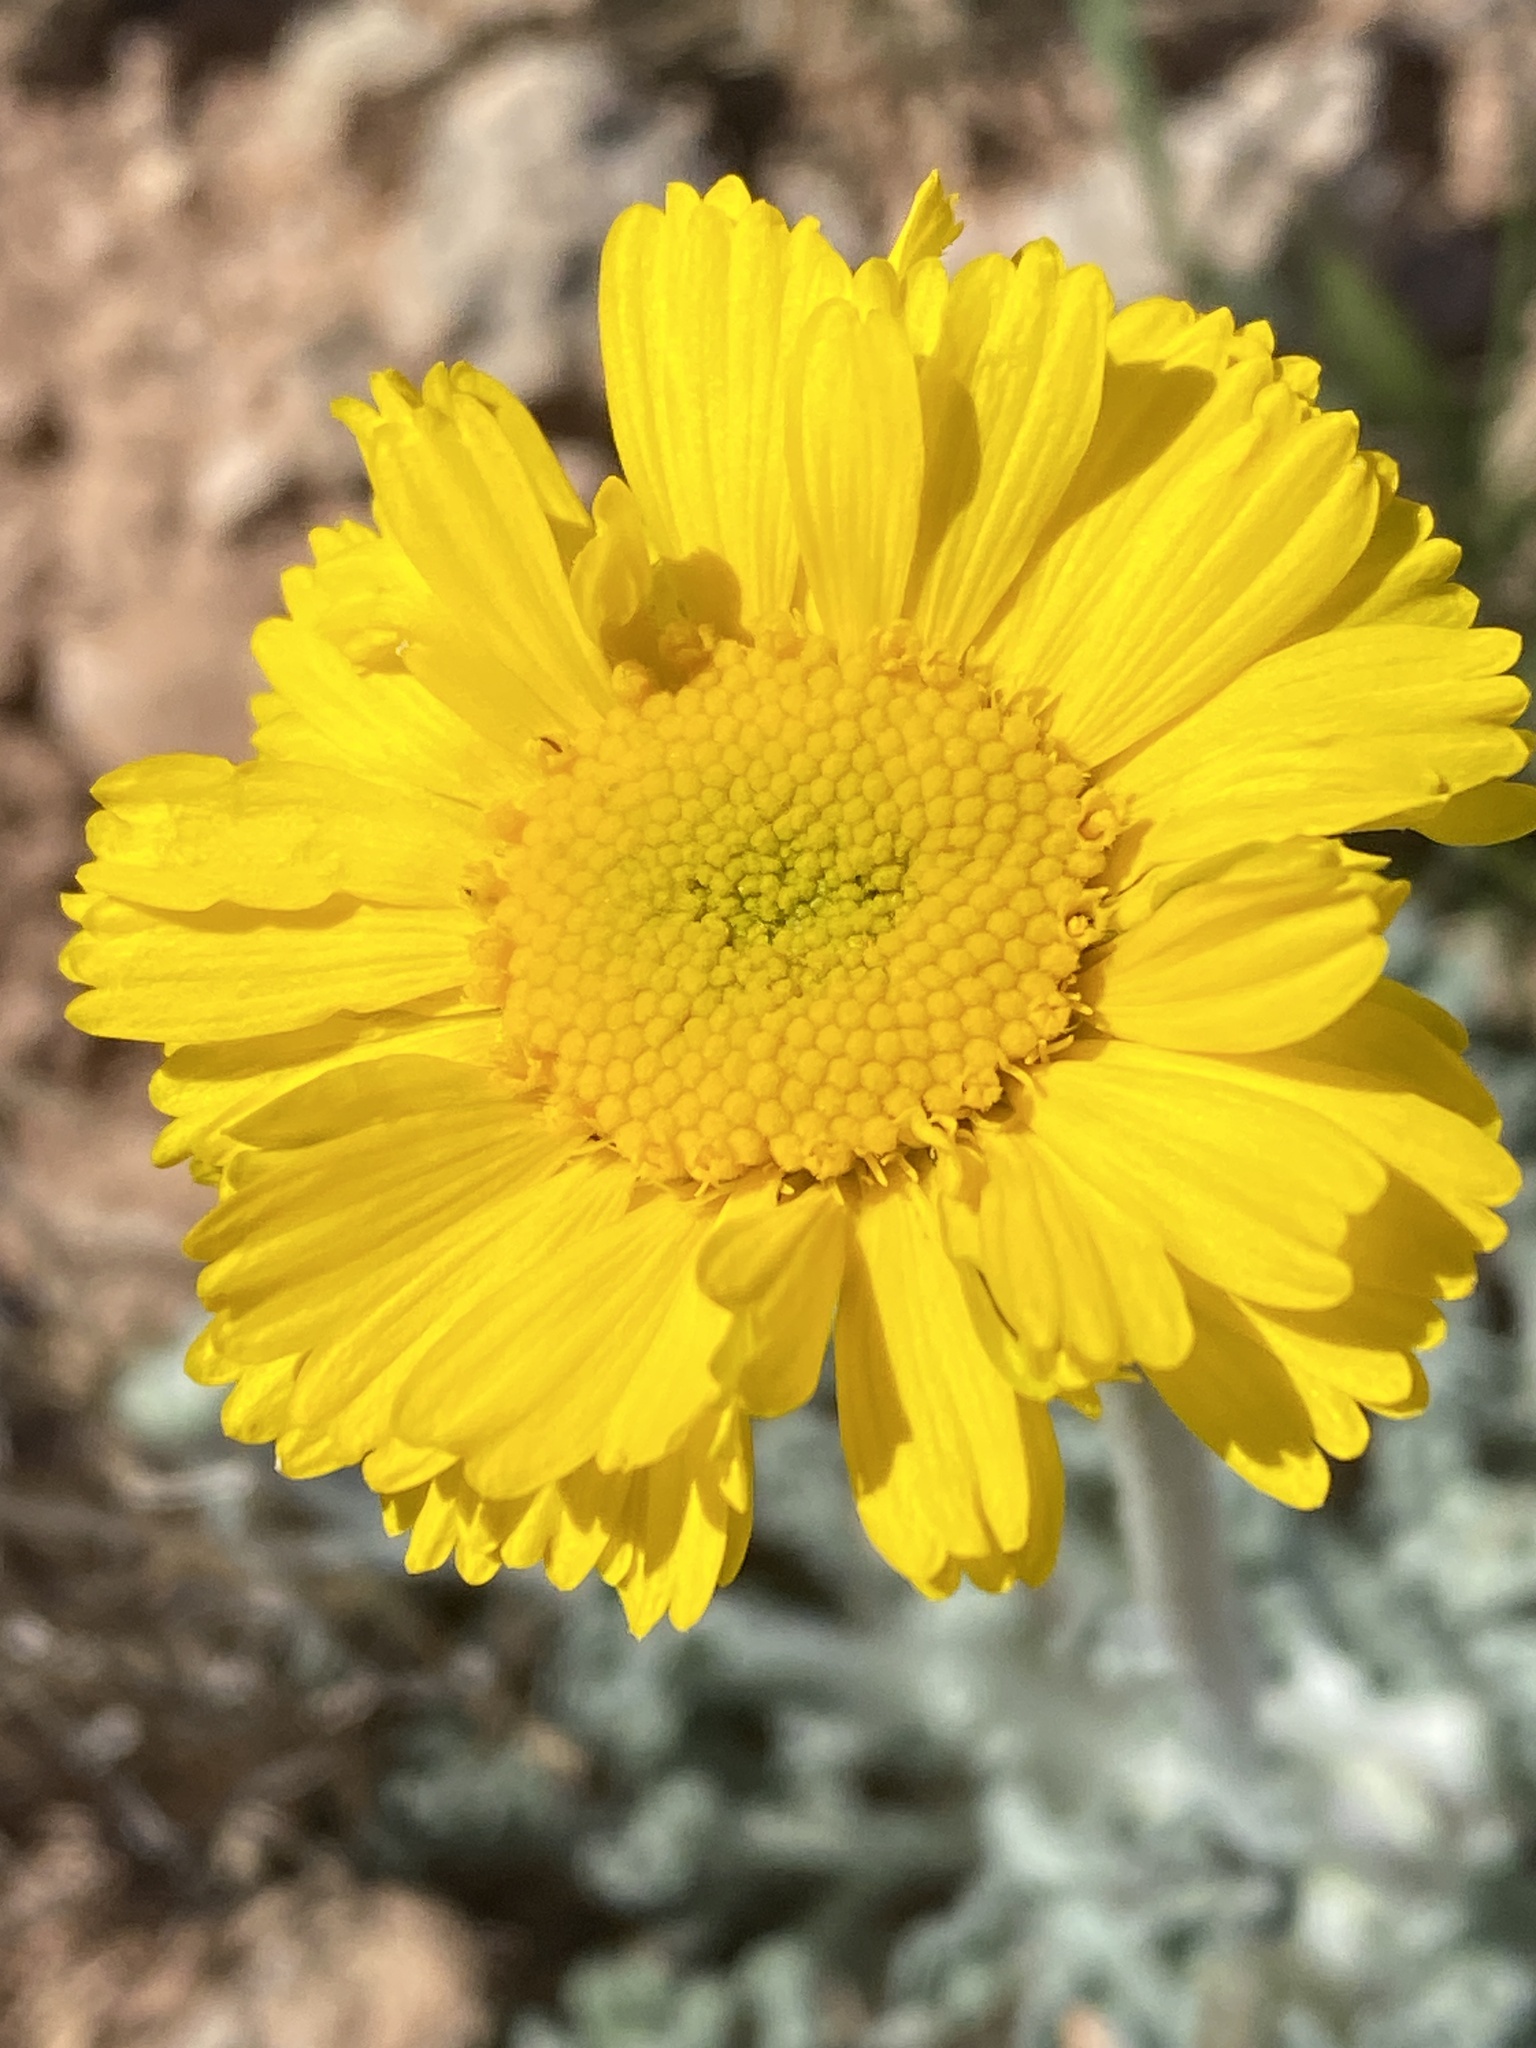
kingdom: Plantae
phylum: Tracheophyta
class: Magnoliopsida
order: Asterales
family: Asteraceae
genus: Baileya
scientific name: Baileya multiradiata
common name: Desert-marigold
